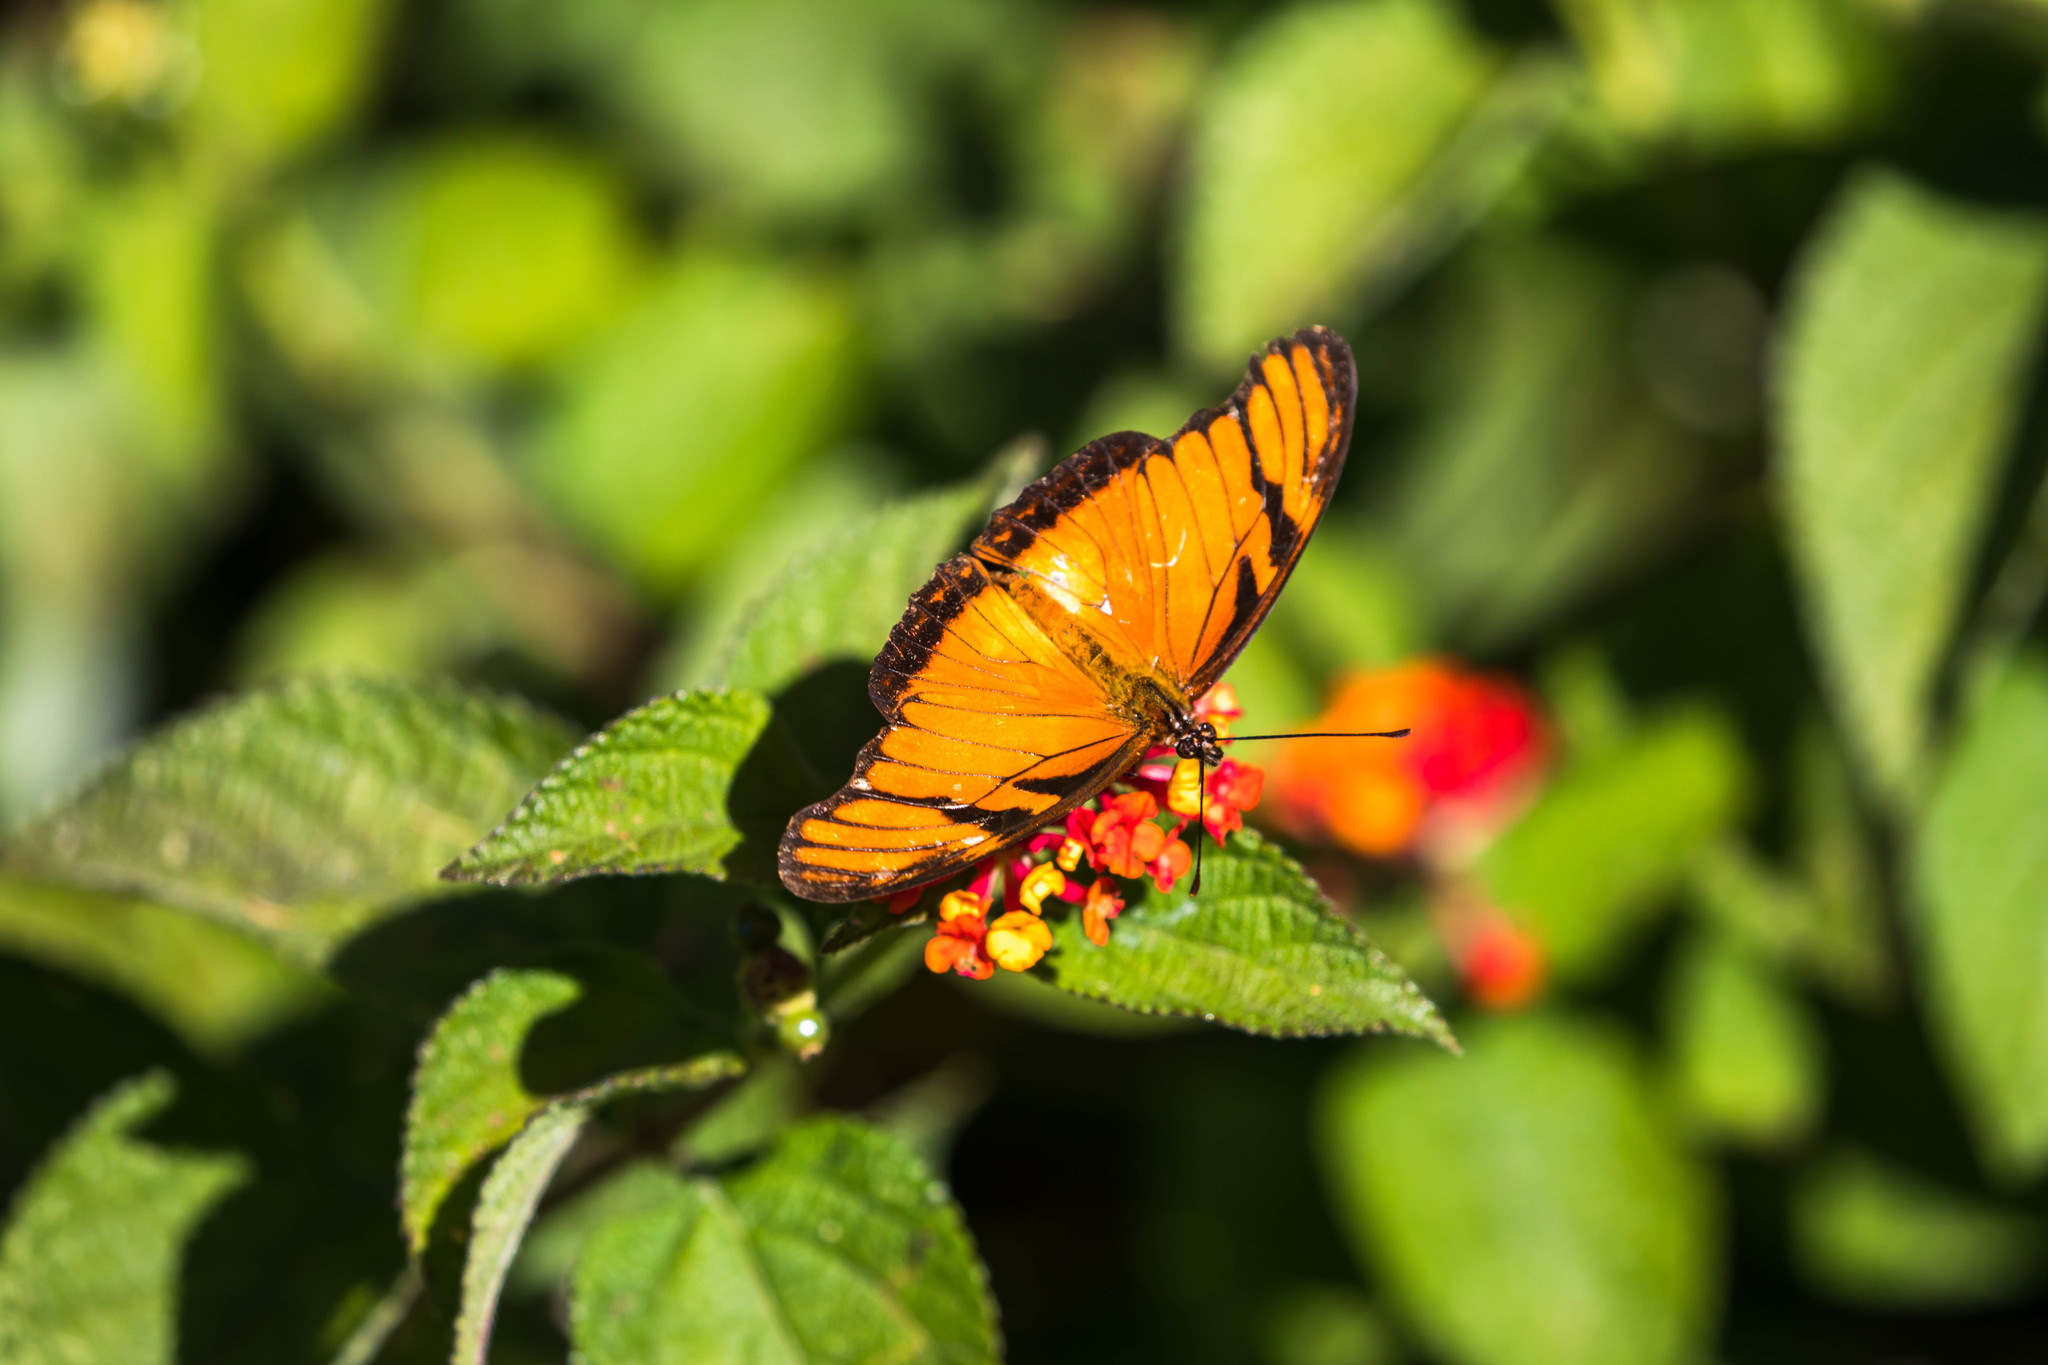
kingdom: Animalia
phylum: Arthropoda
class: Insecta
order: Lepidoptera
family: Nymphalidae
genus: Dione
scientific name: Dione juno
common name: Juno silverspot
